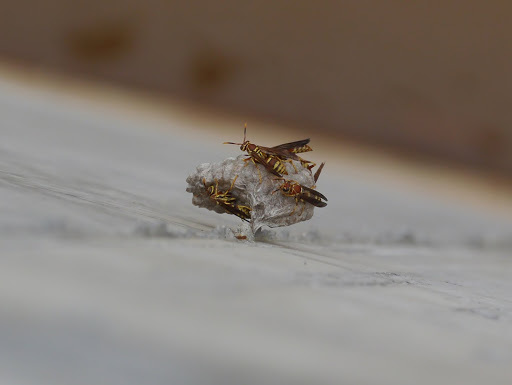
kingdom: Animalia
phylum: Arthropoda
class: Insecta
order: Hymenoptera
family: Eumenidae
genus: Polistes
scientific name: Polistes exclamans
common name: Paper wasp
